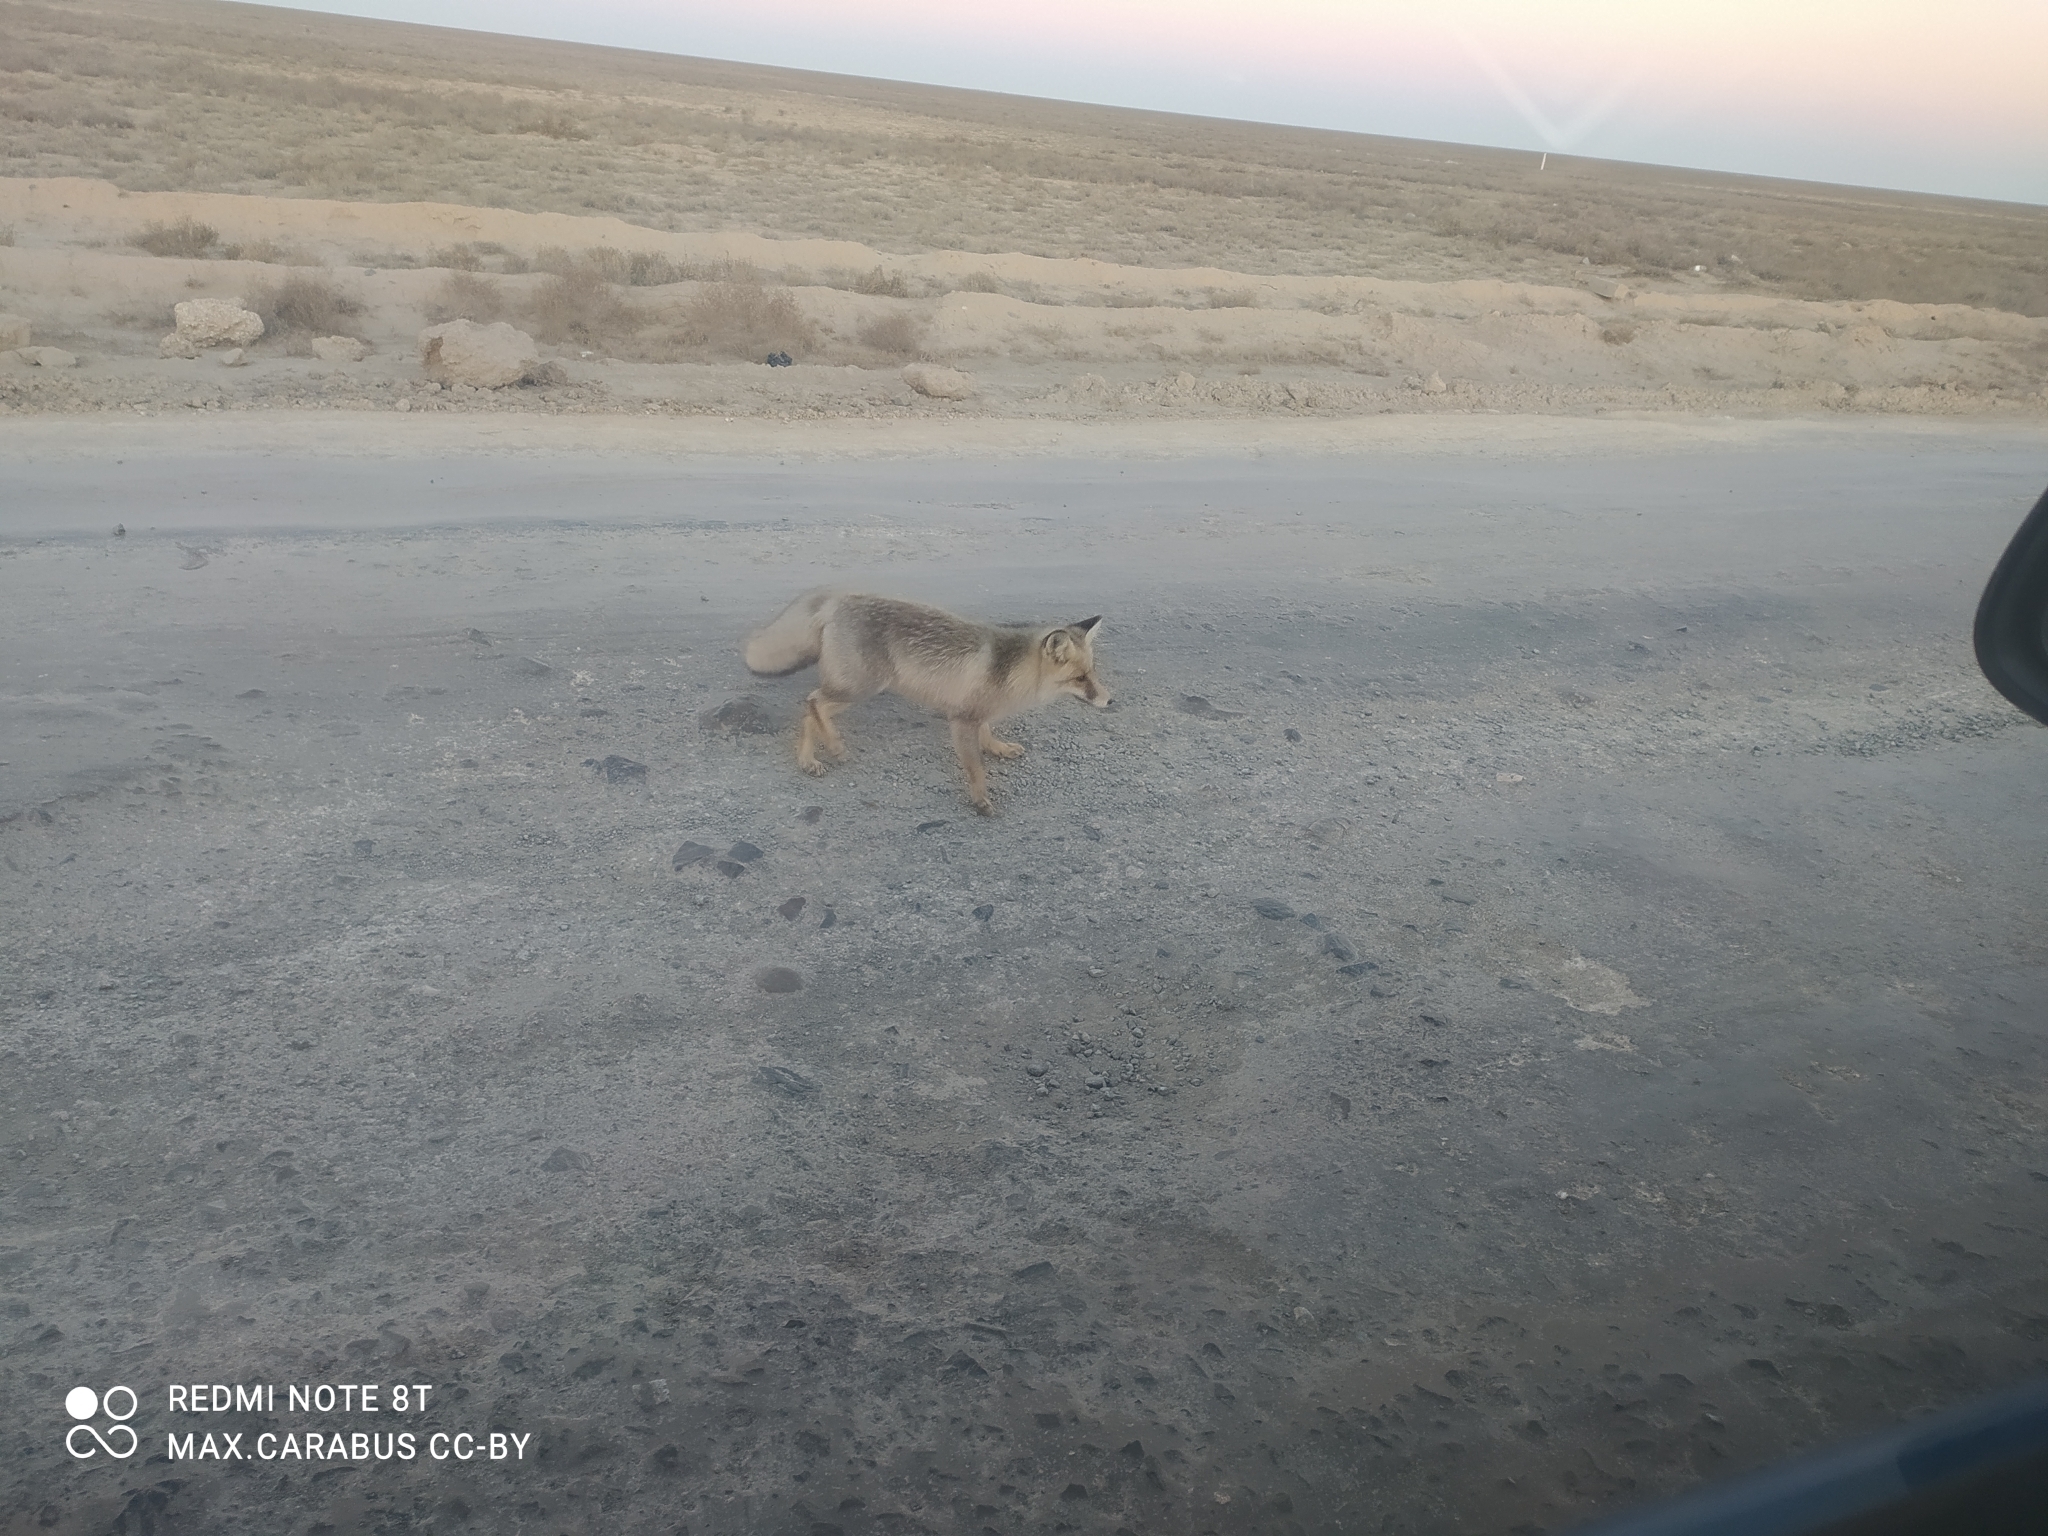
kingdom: Animalia
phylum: Chordata
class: Mammalia
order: Carnivora
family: Canidae
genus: Vulpes
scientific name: Vulpes vulpes
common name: Red fox
